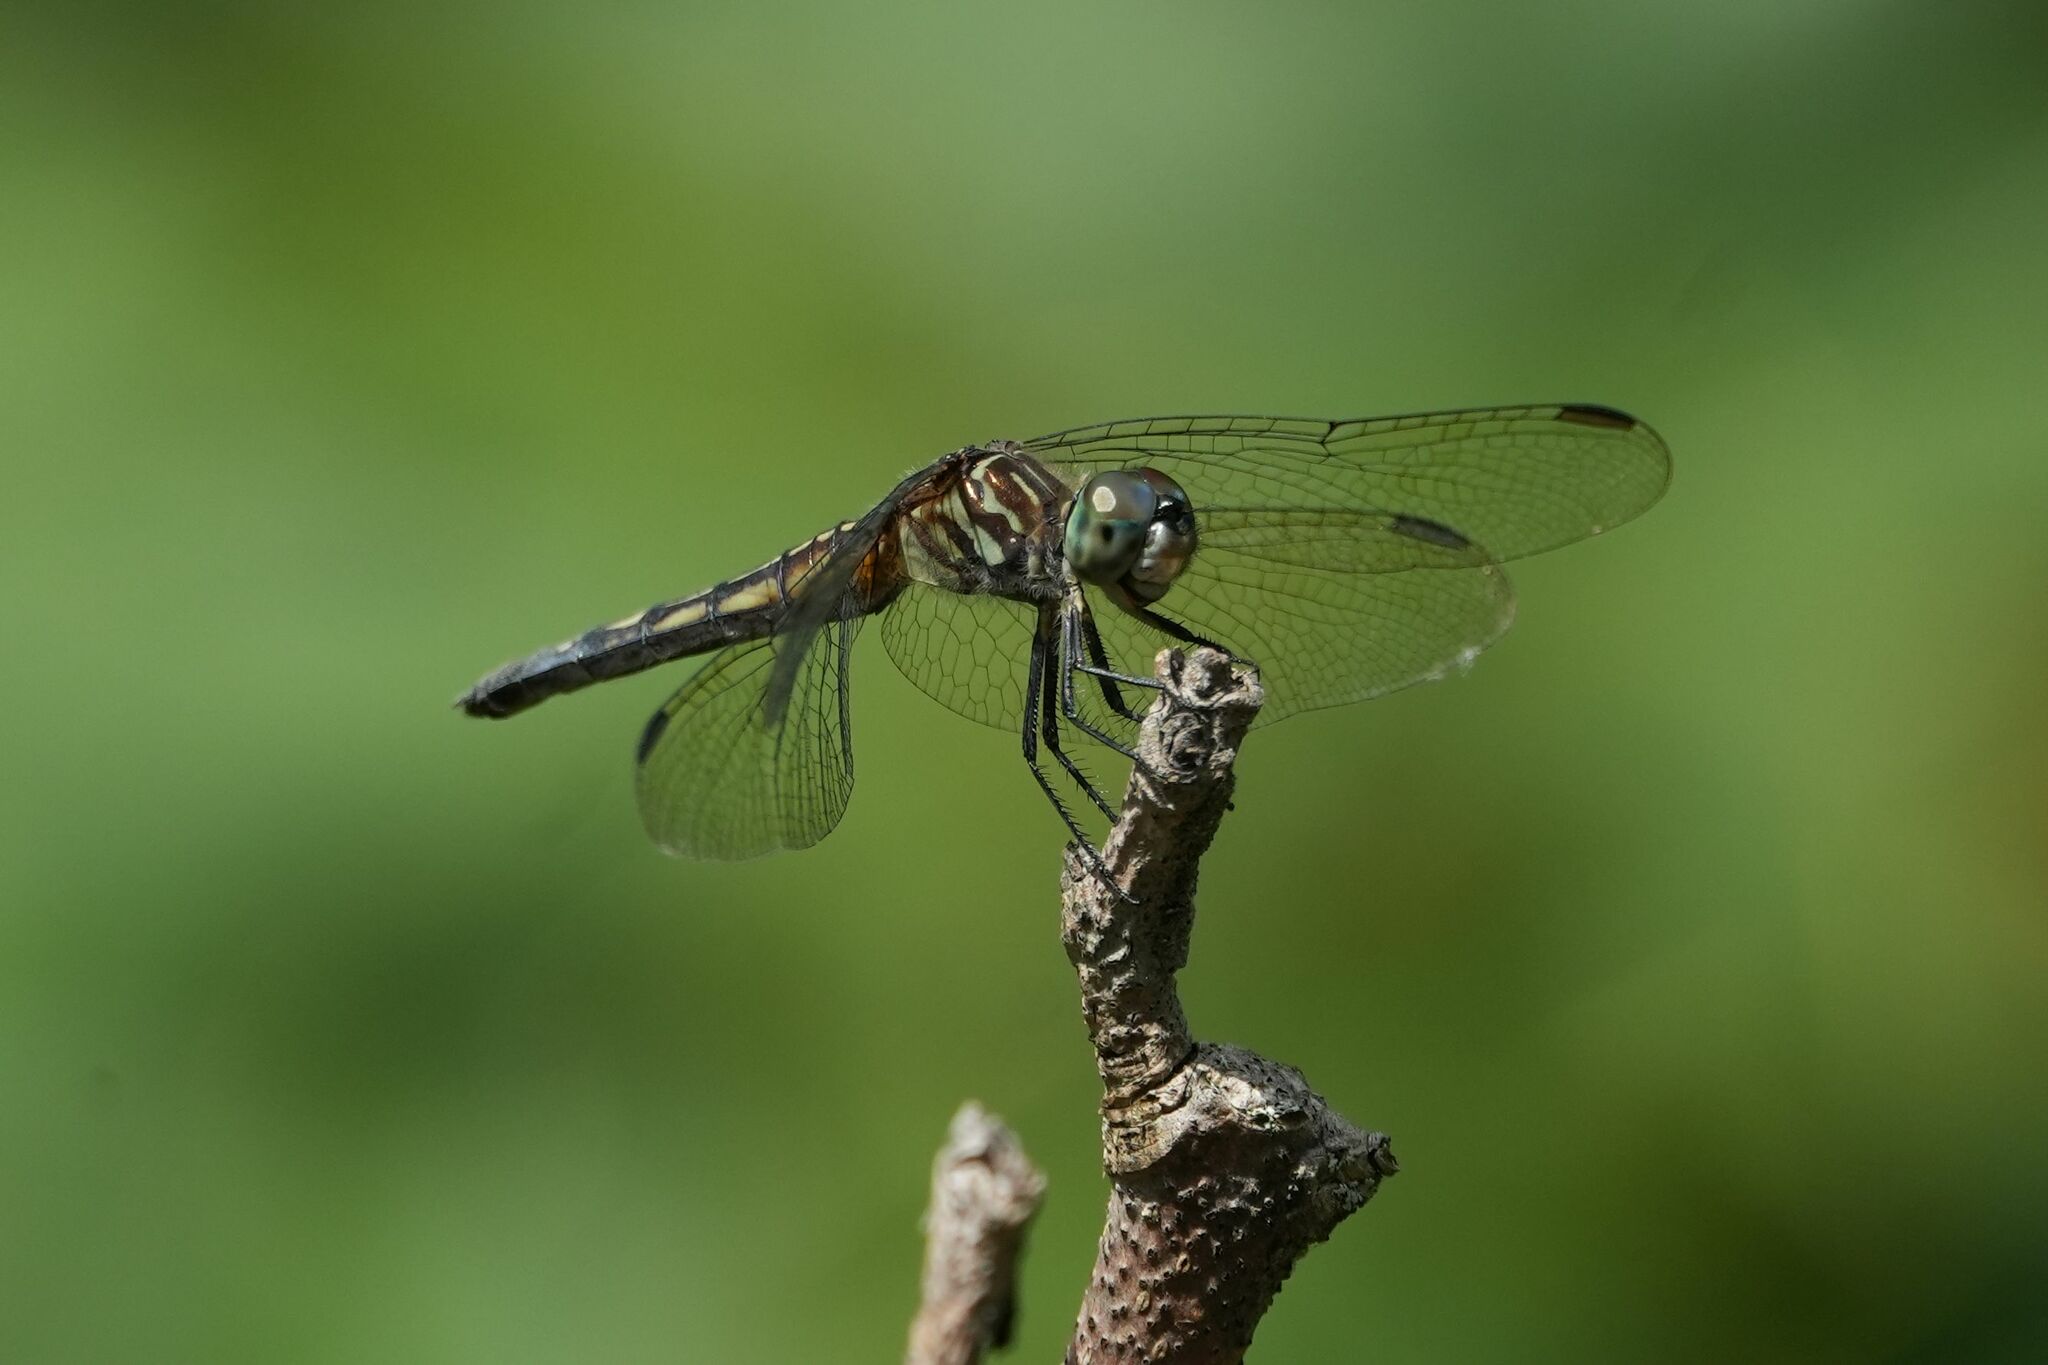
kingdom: Animalia
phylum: Arthropoda
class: Insecta
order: Odonata
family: Libellulidae
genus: Pachydiplax
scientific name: Pachydiplax longipennis
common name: Blue dasher
